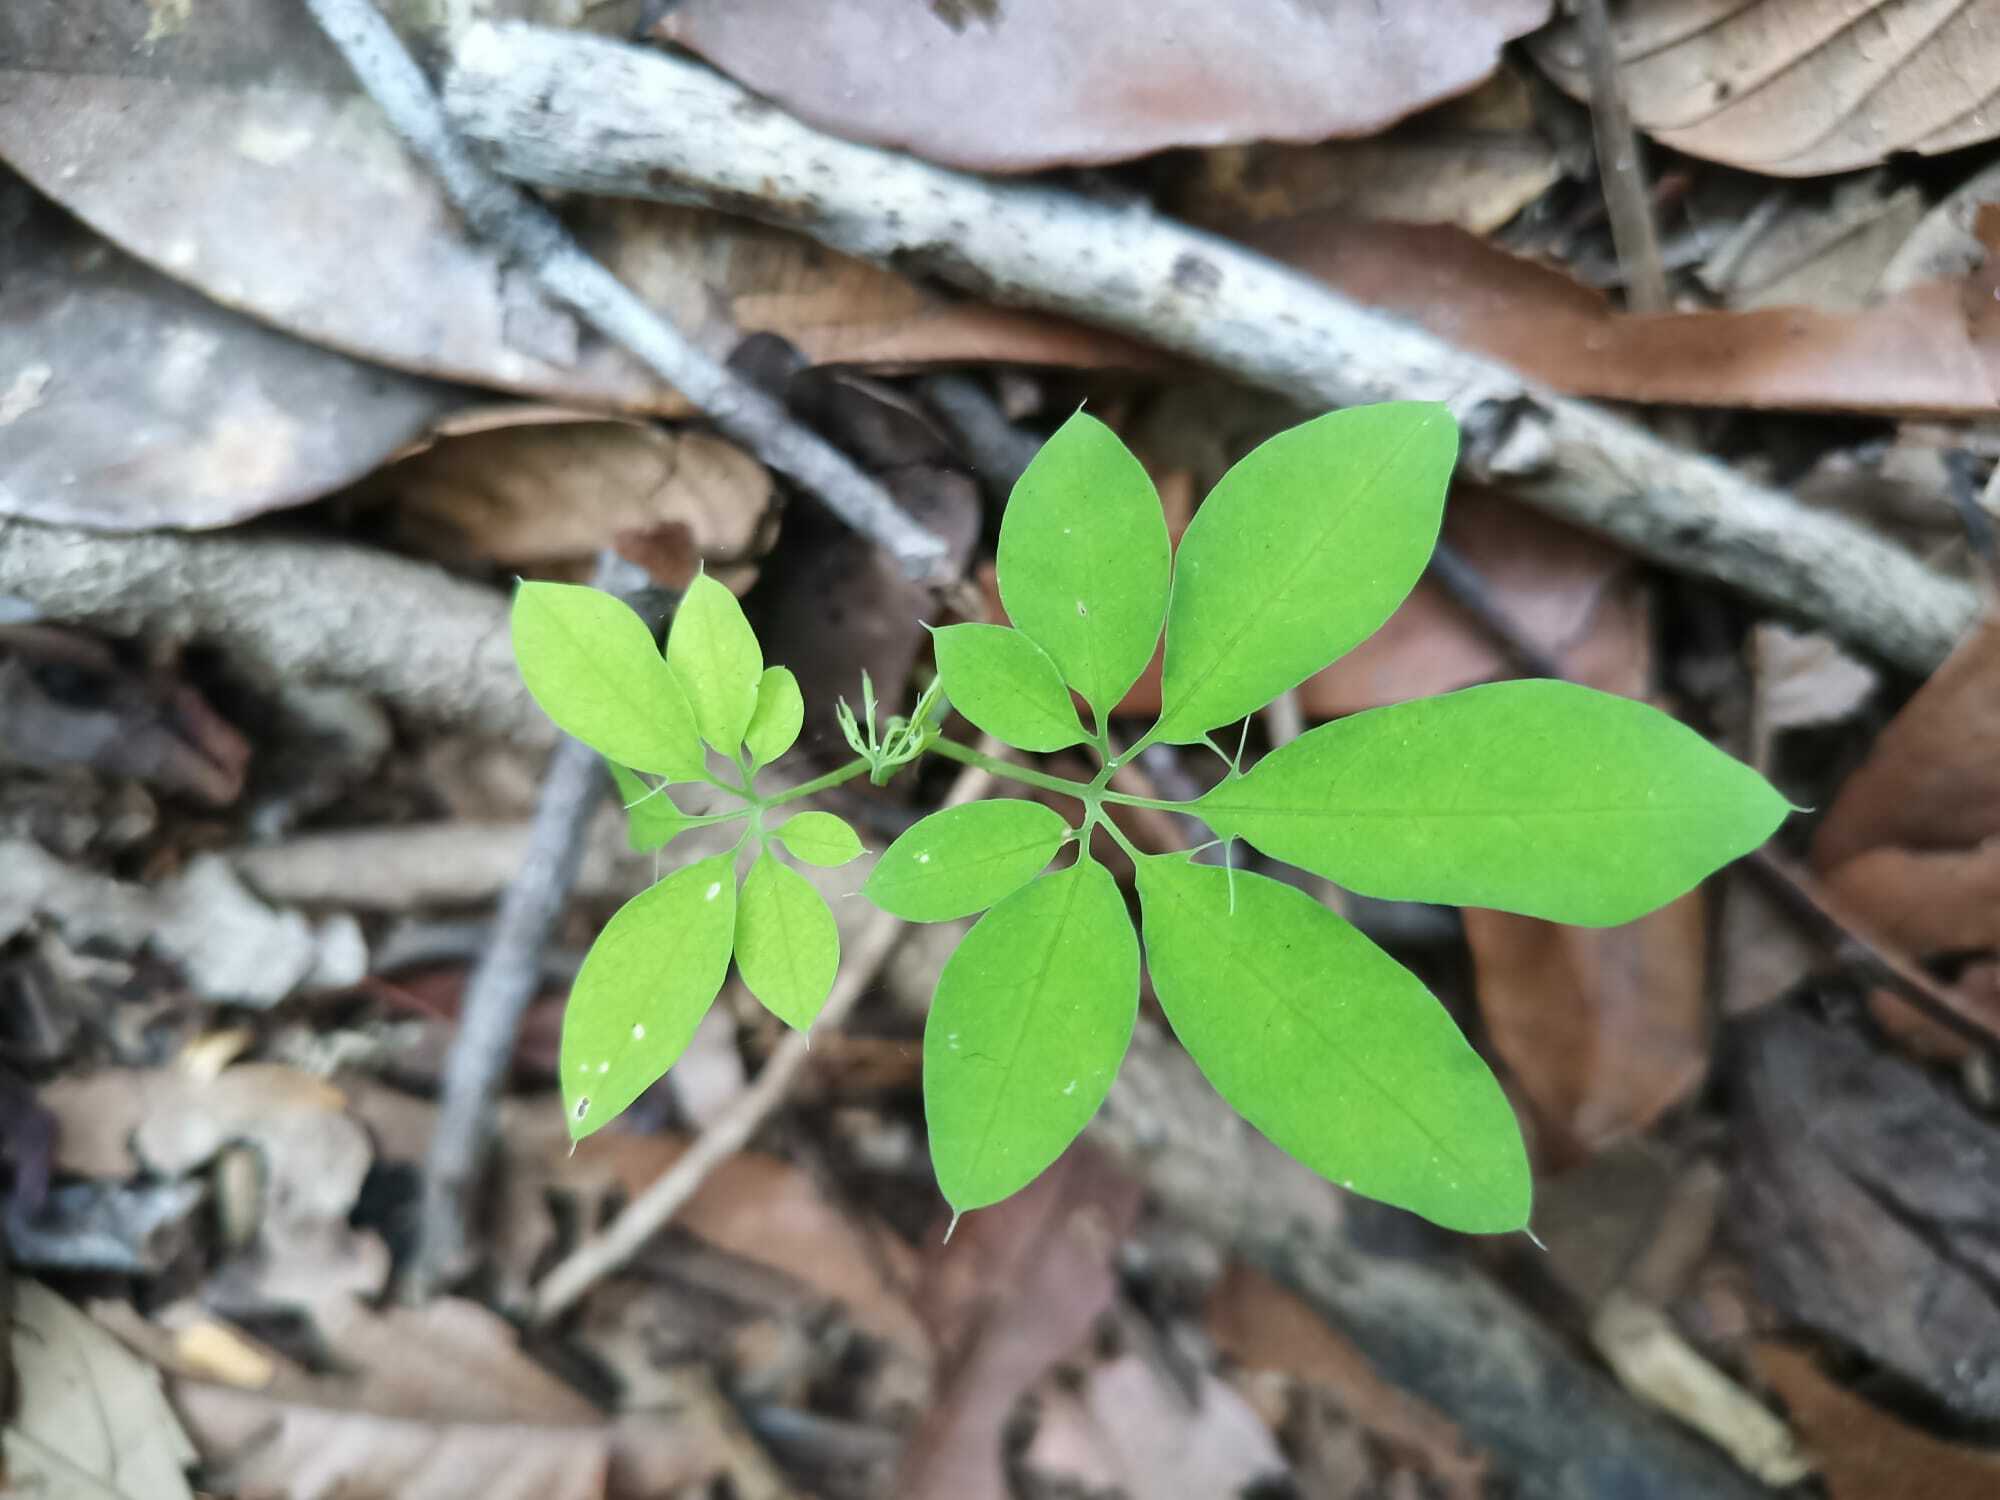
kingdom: Plantae
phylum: Tracheophyta
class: Magnoliopsida
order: Malpighiales
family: Passifloraceae
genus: Passiflora
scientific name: Passiflora cirrhiflora
